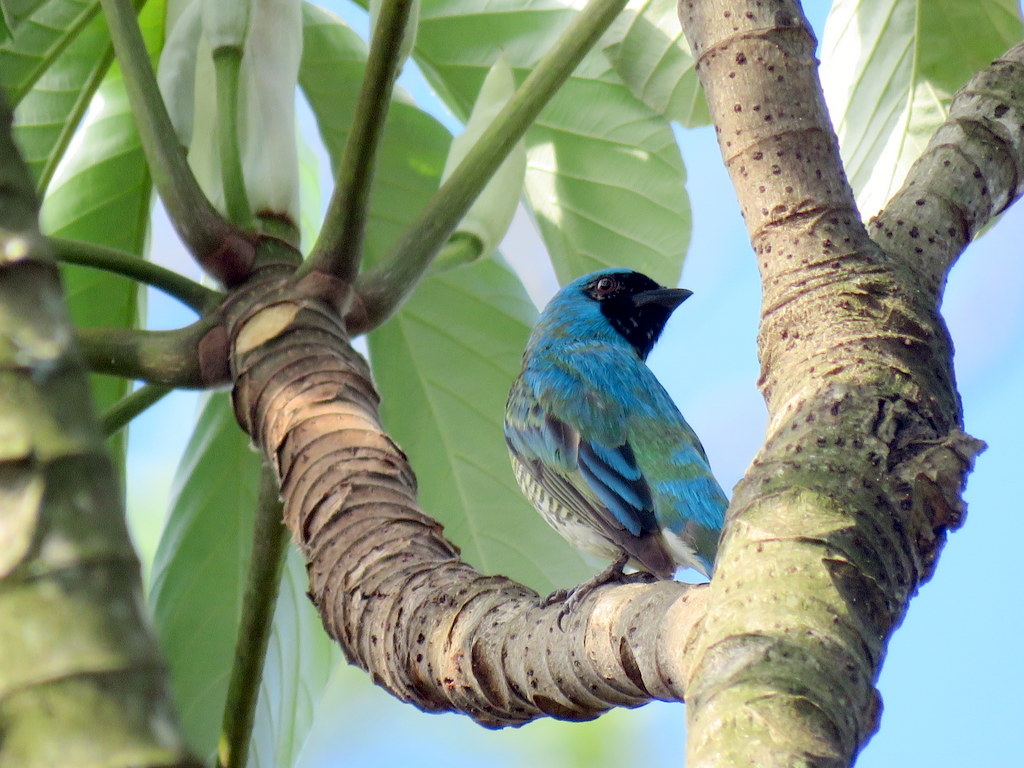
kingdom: Animalia
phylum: Chordata
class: Aves
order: Passeriformes
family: Thraupidae
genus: Tersina
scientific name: Tersina viridis
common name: Swallow tanager
